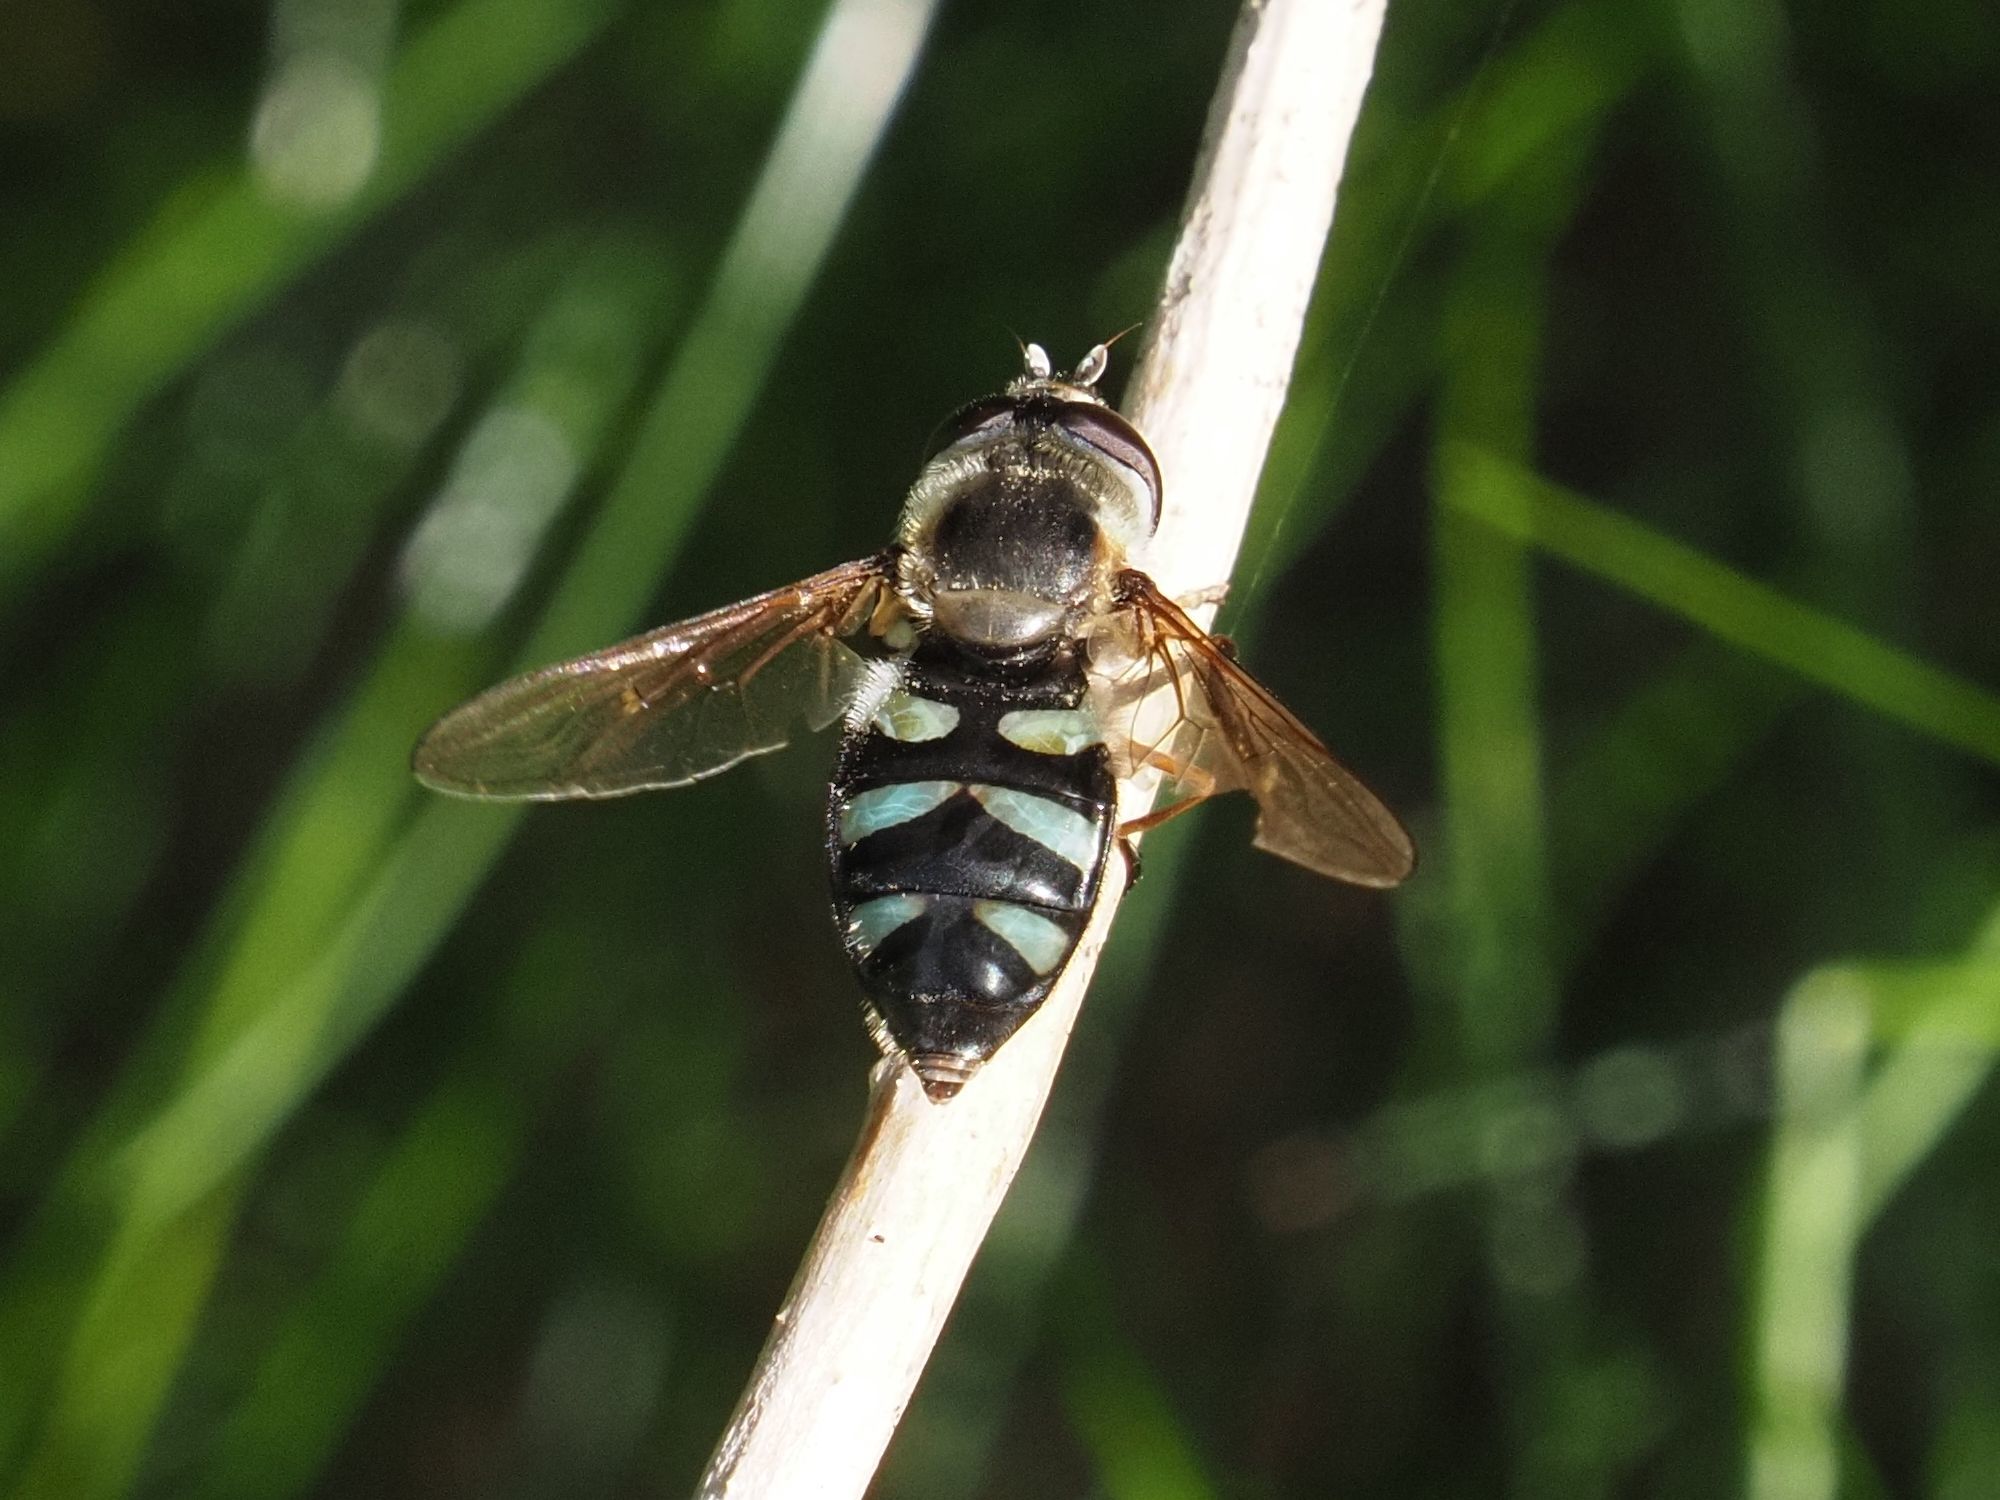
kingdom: Animalia
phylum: Arthropoda
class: Insecta
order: Diptera
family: Syrphidae
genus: Didea
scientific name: Didea alneti
